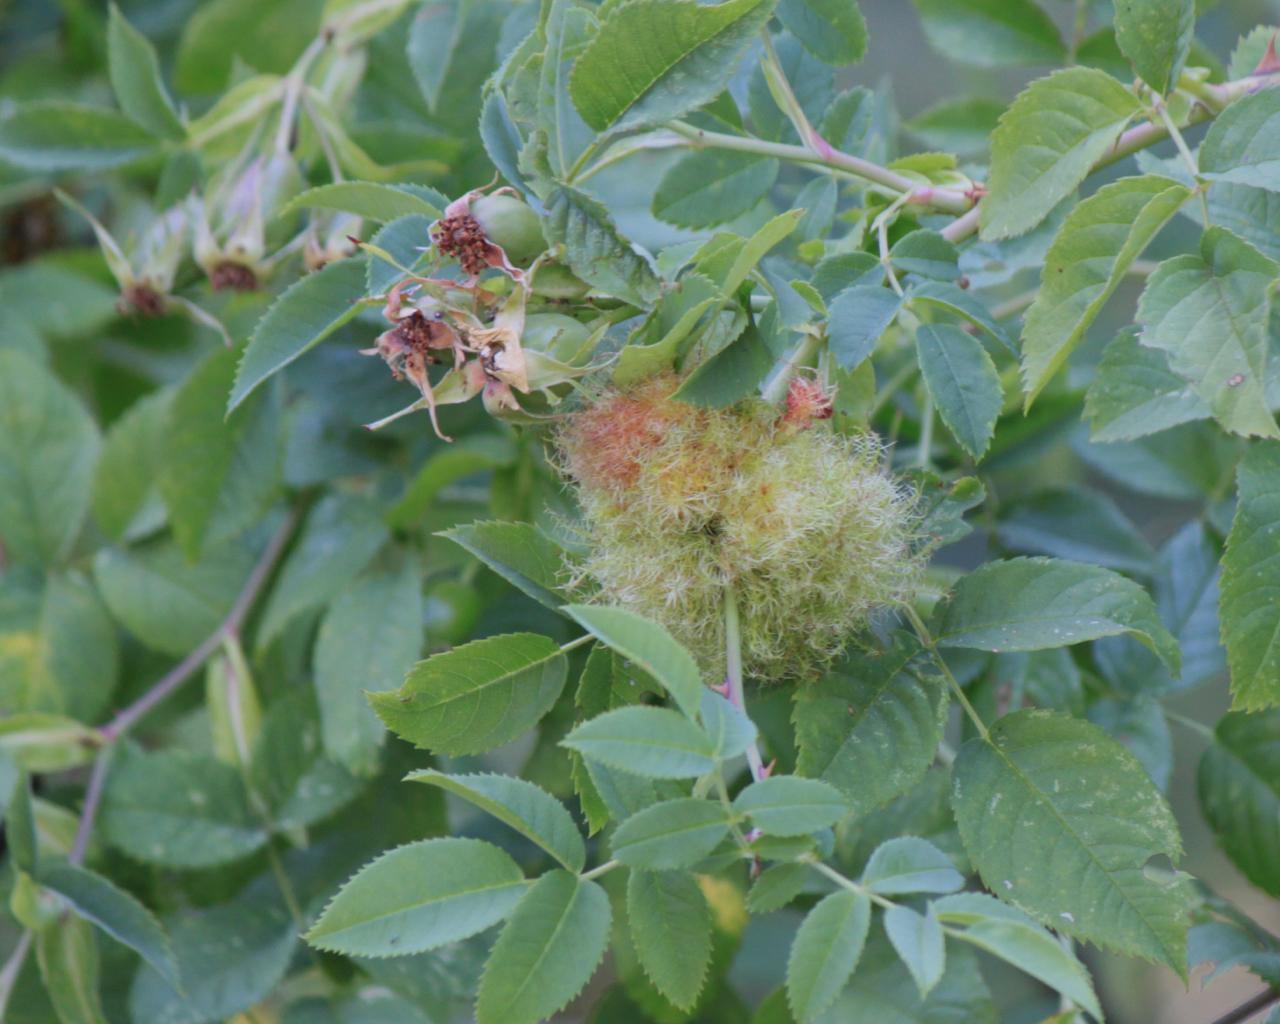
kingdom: Animalia
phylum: Arthropoda
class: Insecta
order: Hymenoptera
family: Cynipidae
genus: Diplolepis
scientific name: Diplolepis rosae
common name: Bedeguar gall
